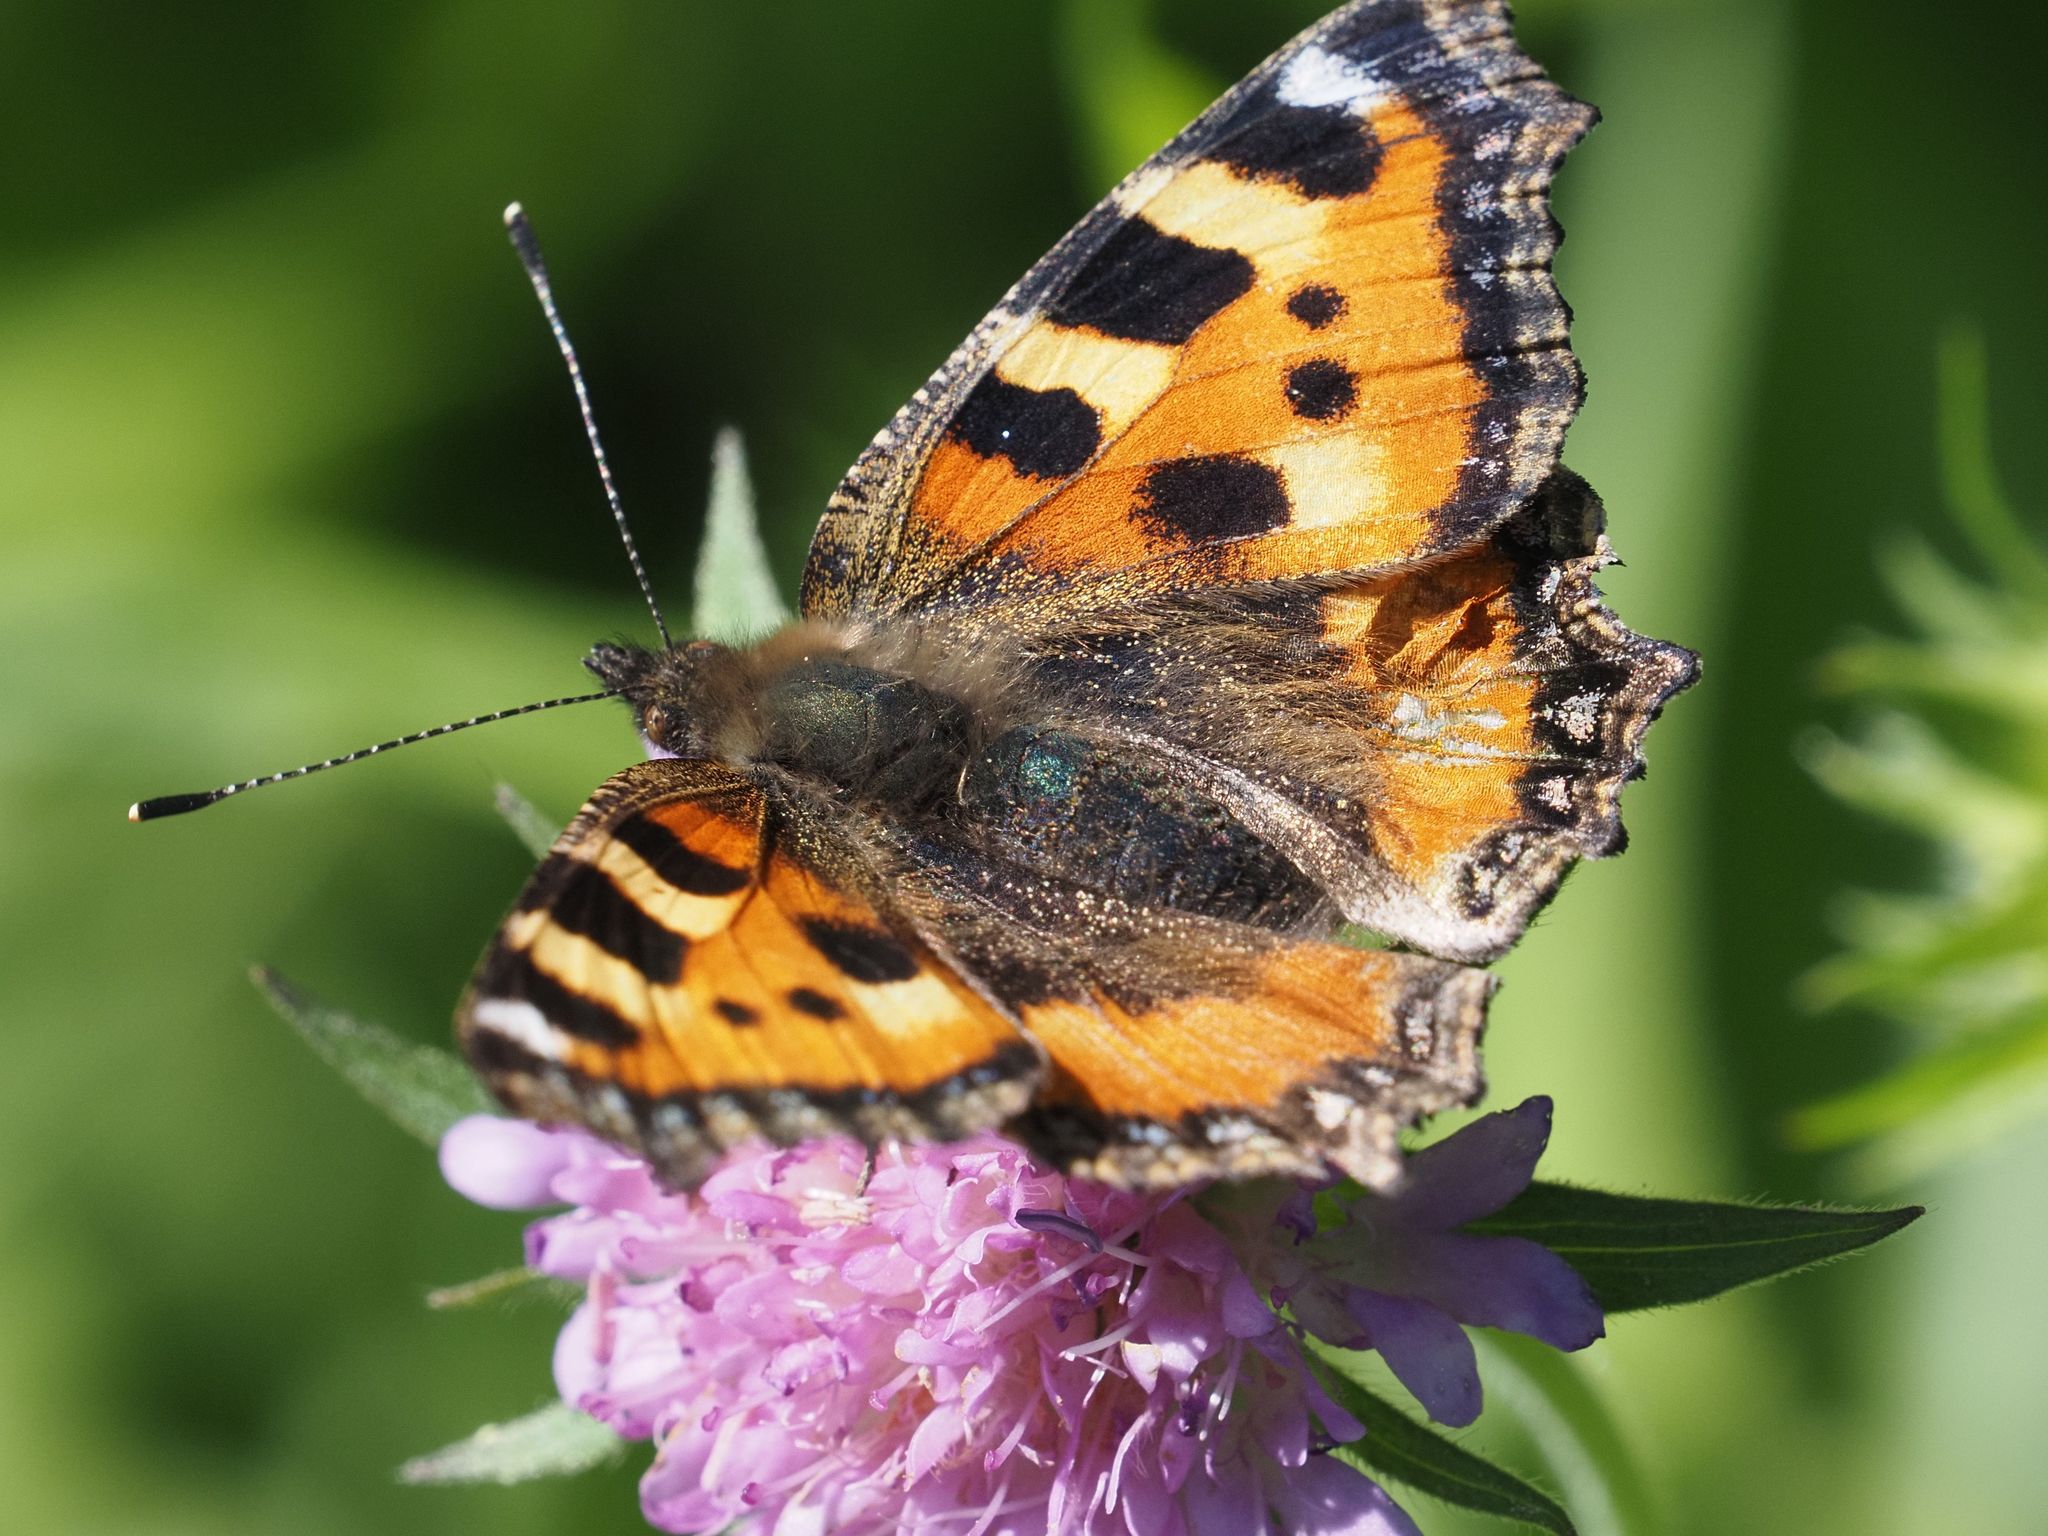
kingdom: Animalia
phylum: Arthropoda
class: Insecta
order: Lepidoptera
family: Nymphalidae
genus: Aglais
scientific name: Aglais urticae
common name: Small tortoiseshell
